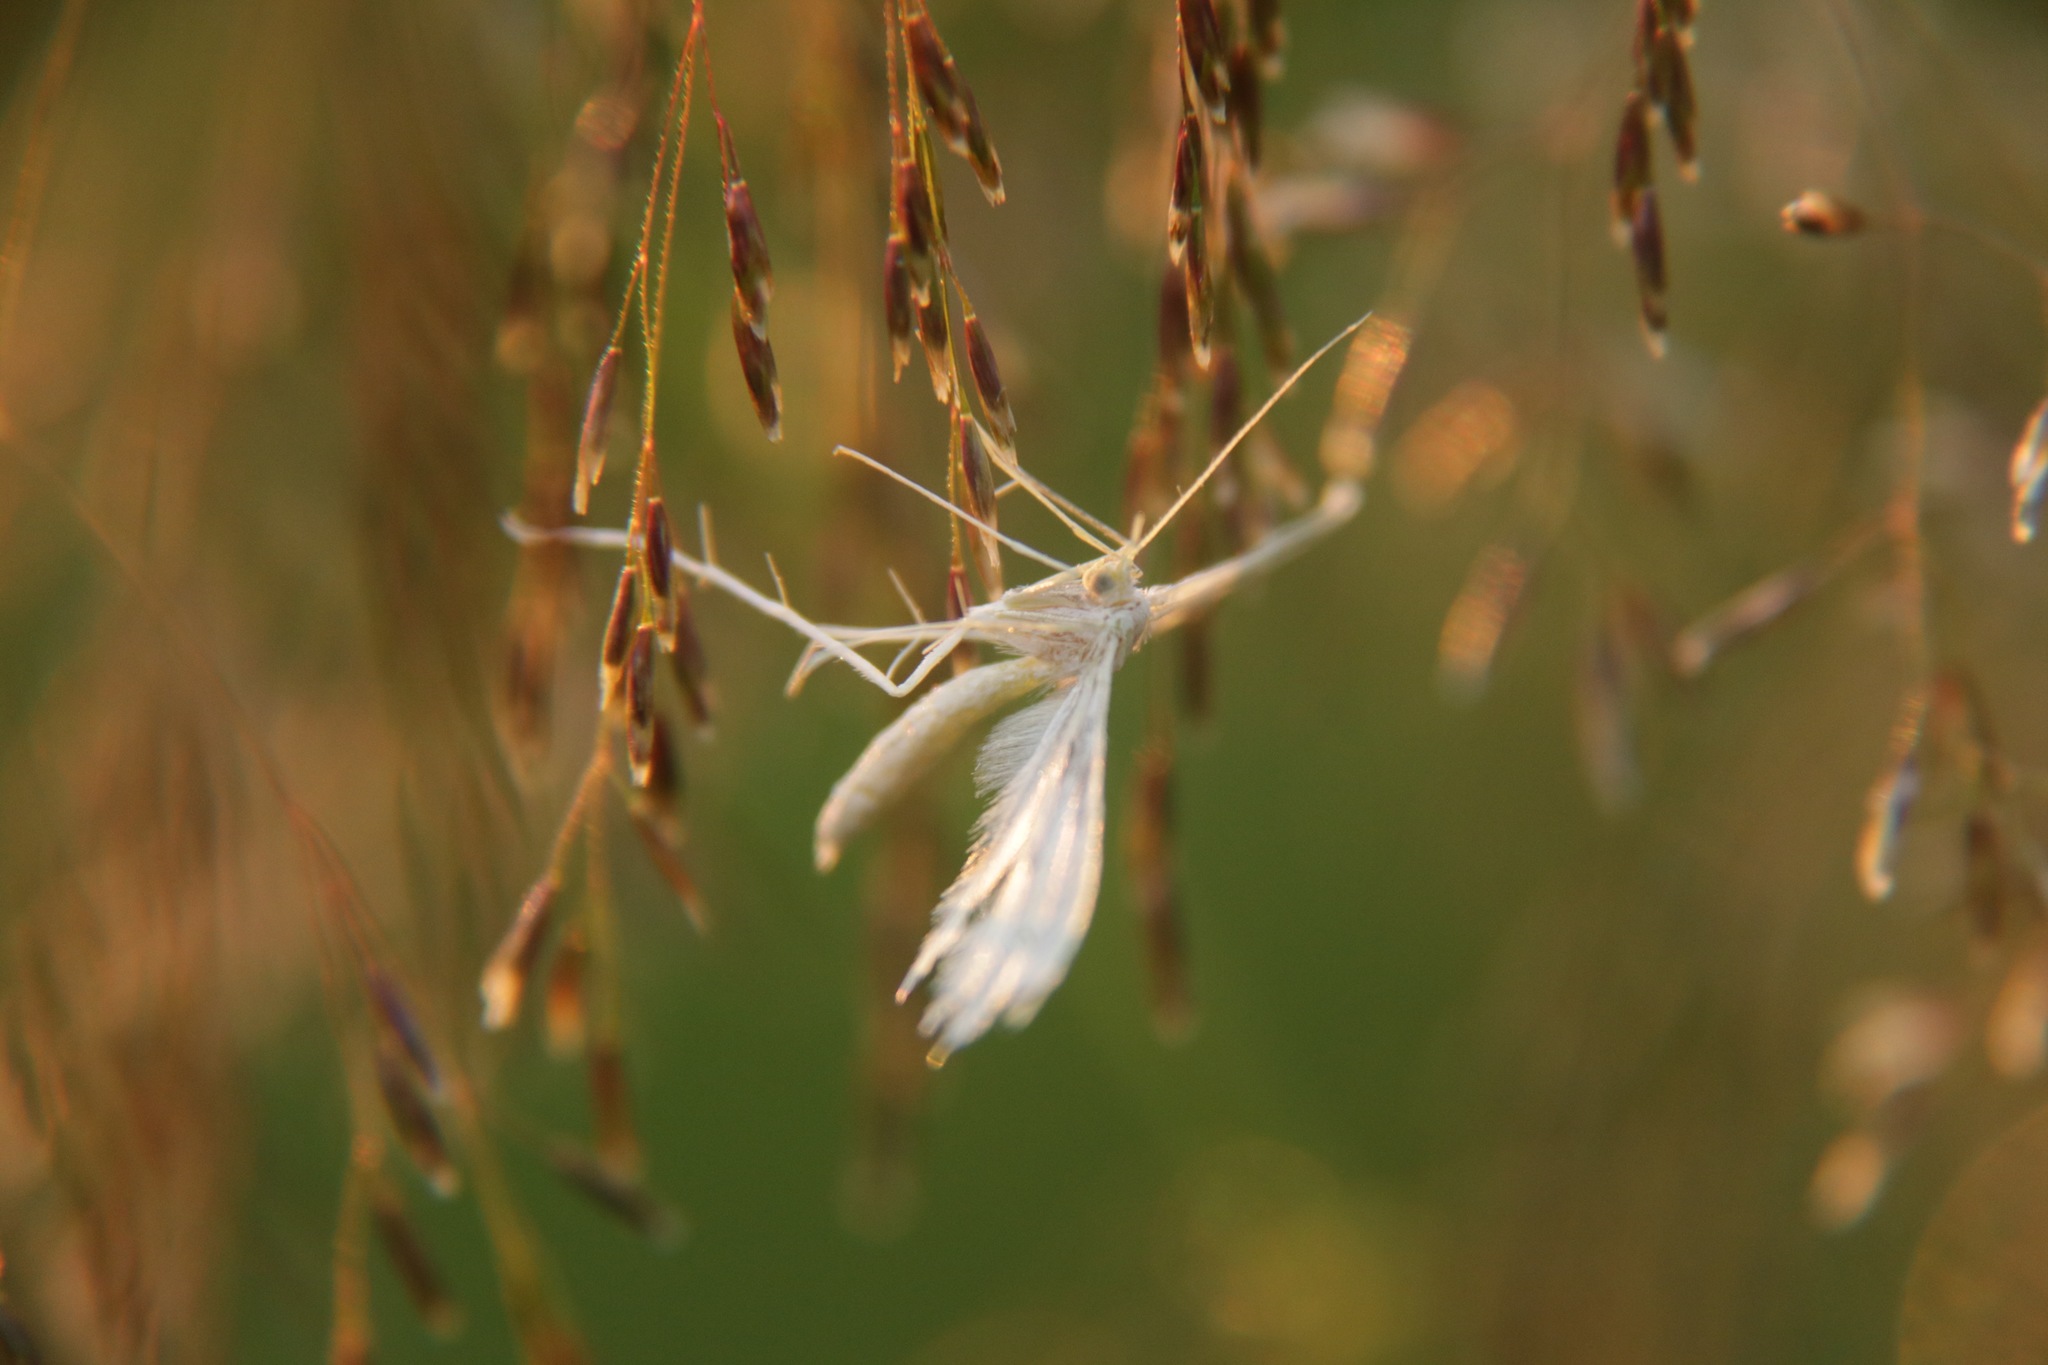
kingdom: Animalia
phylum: Arthropoda
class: Insecta
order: Lepidoptera
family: Pterophoridae
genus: Pterophorus
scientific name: Pterophorus pentadactyla
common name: White plume moth
